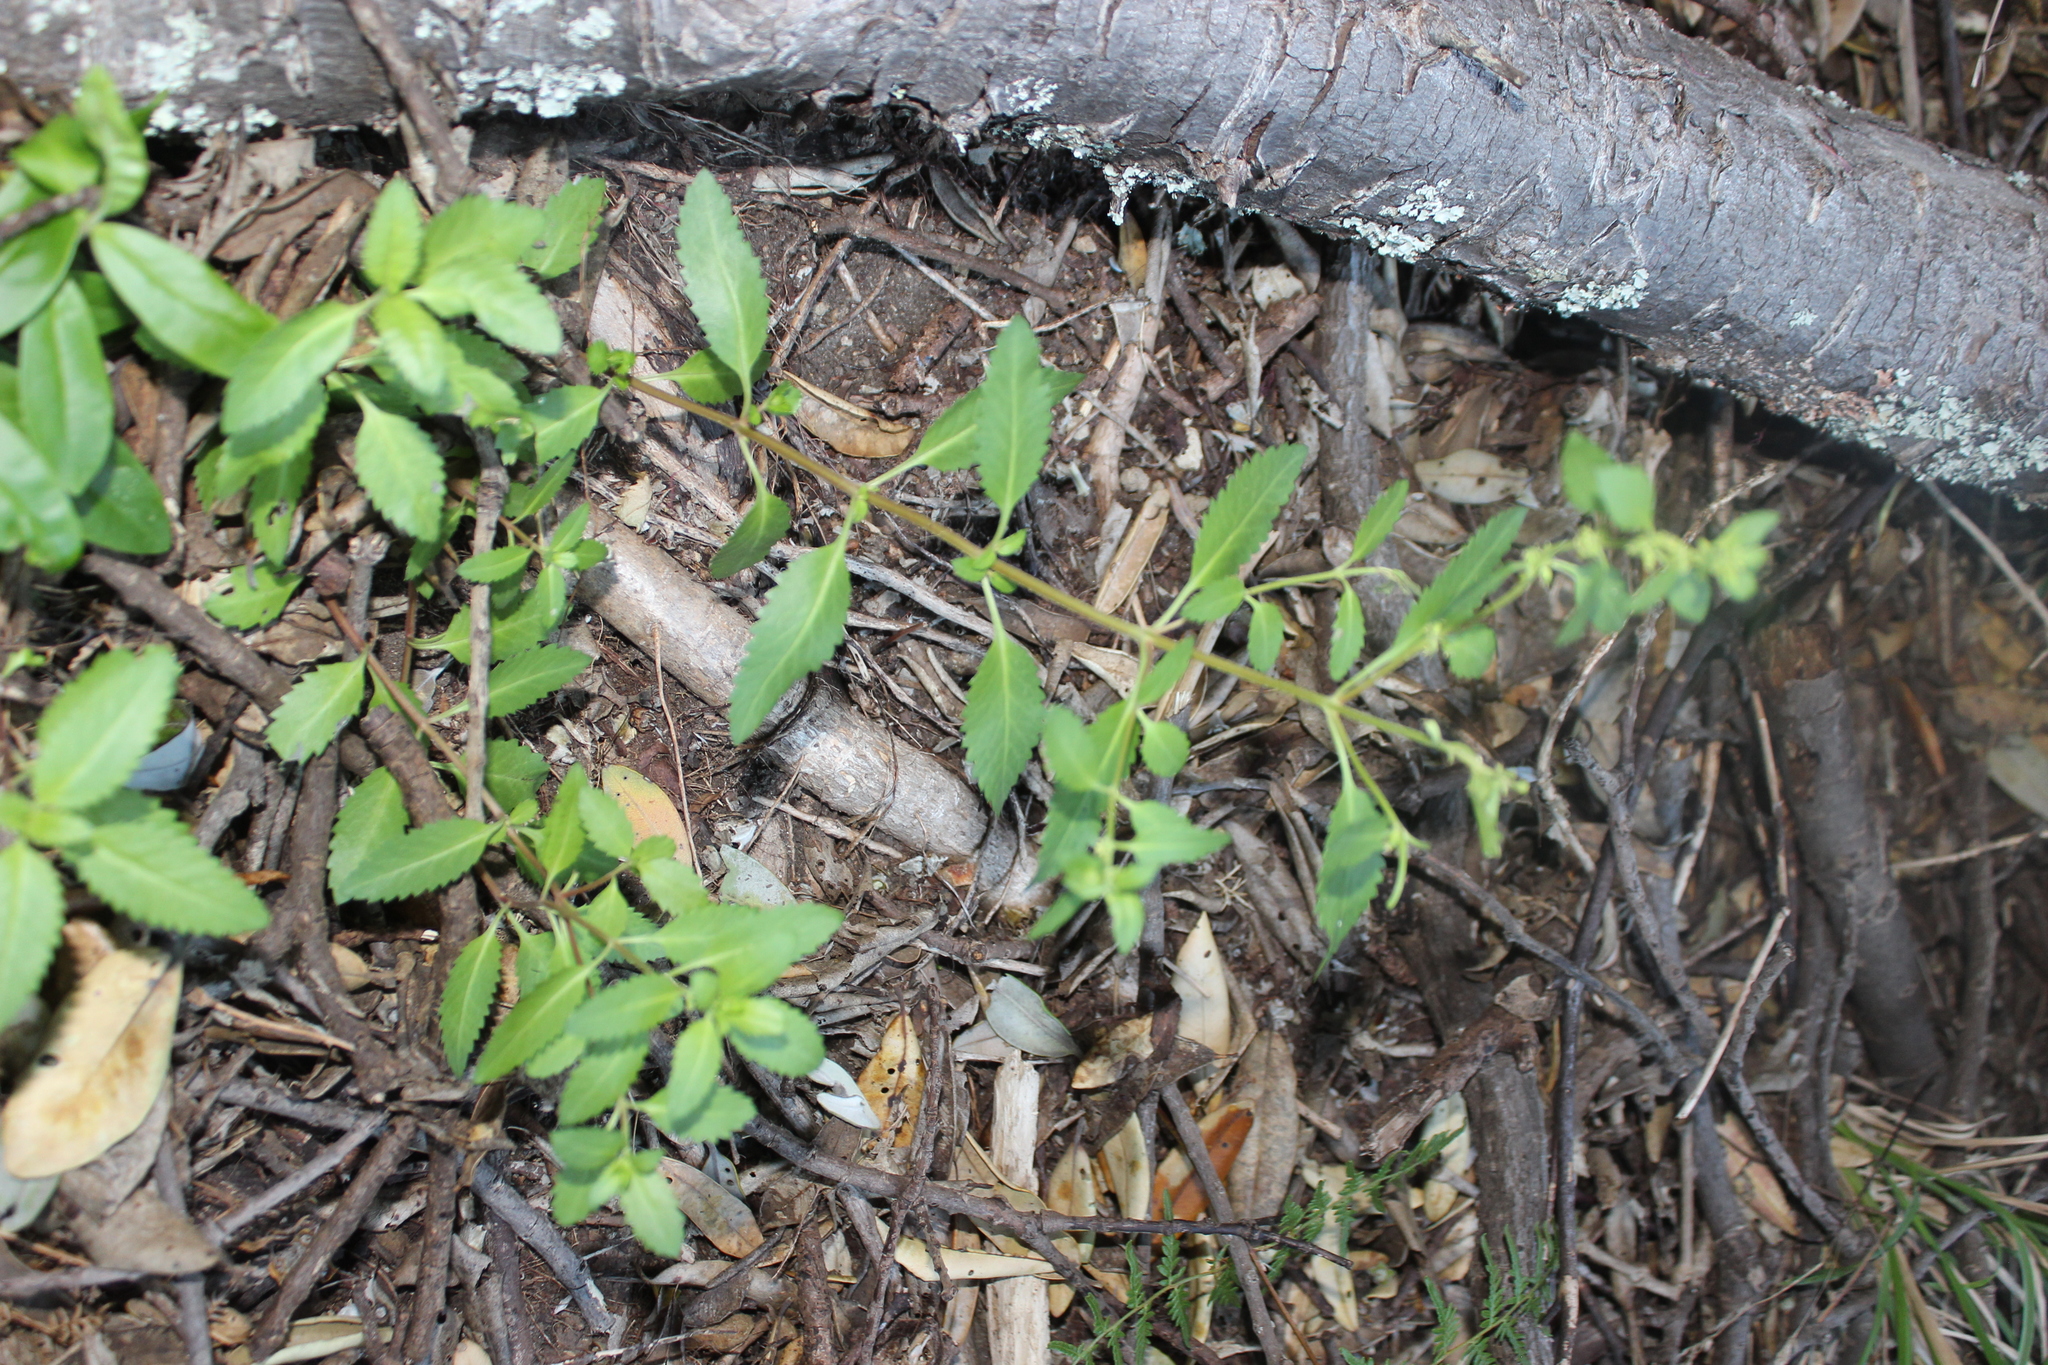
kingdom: Plantae
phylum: Tracheophyta
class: Magnoliopsida
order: Saxifragales
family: Haloragaceae
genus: Haloragis
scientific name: Haloragis erecta
